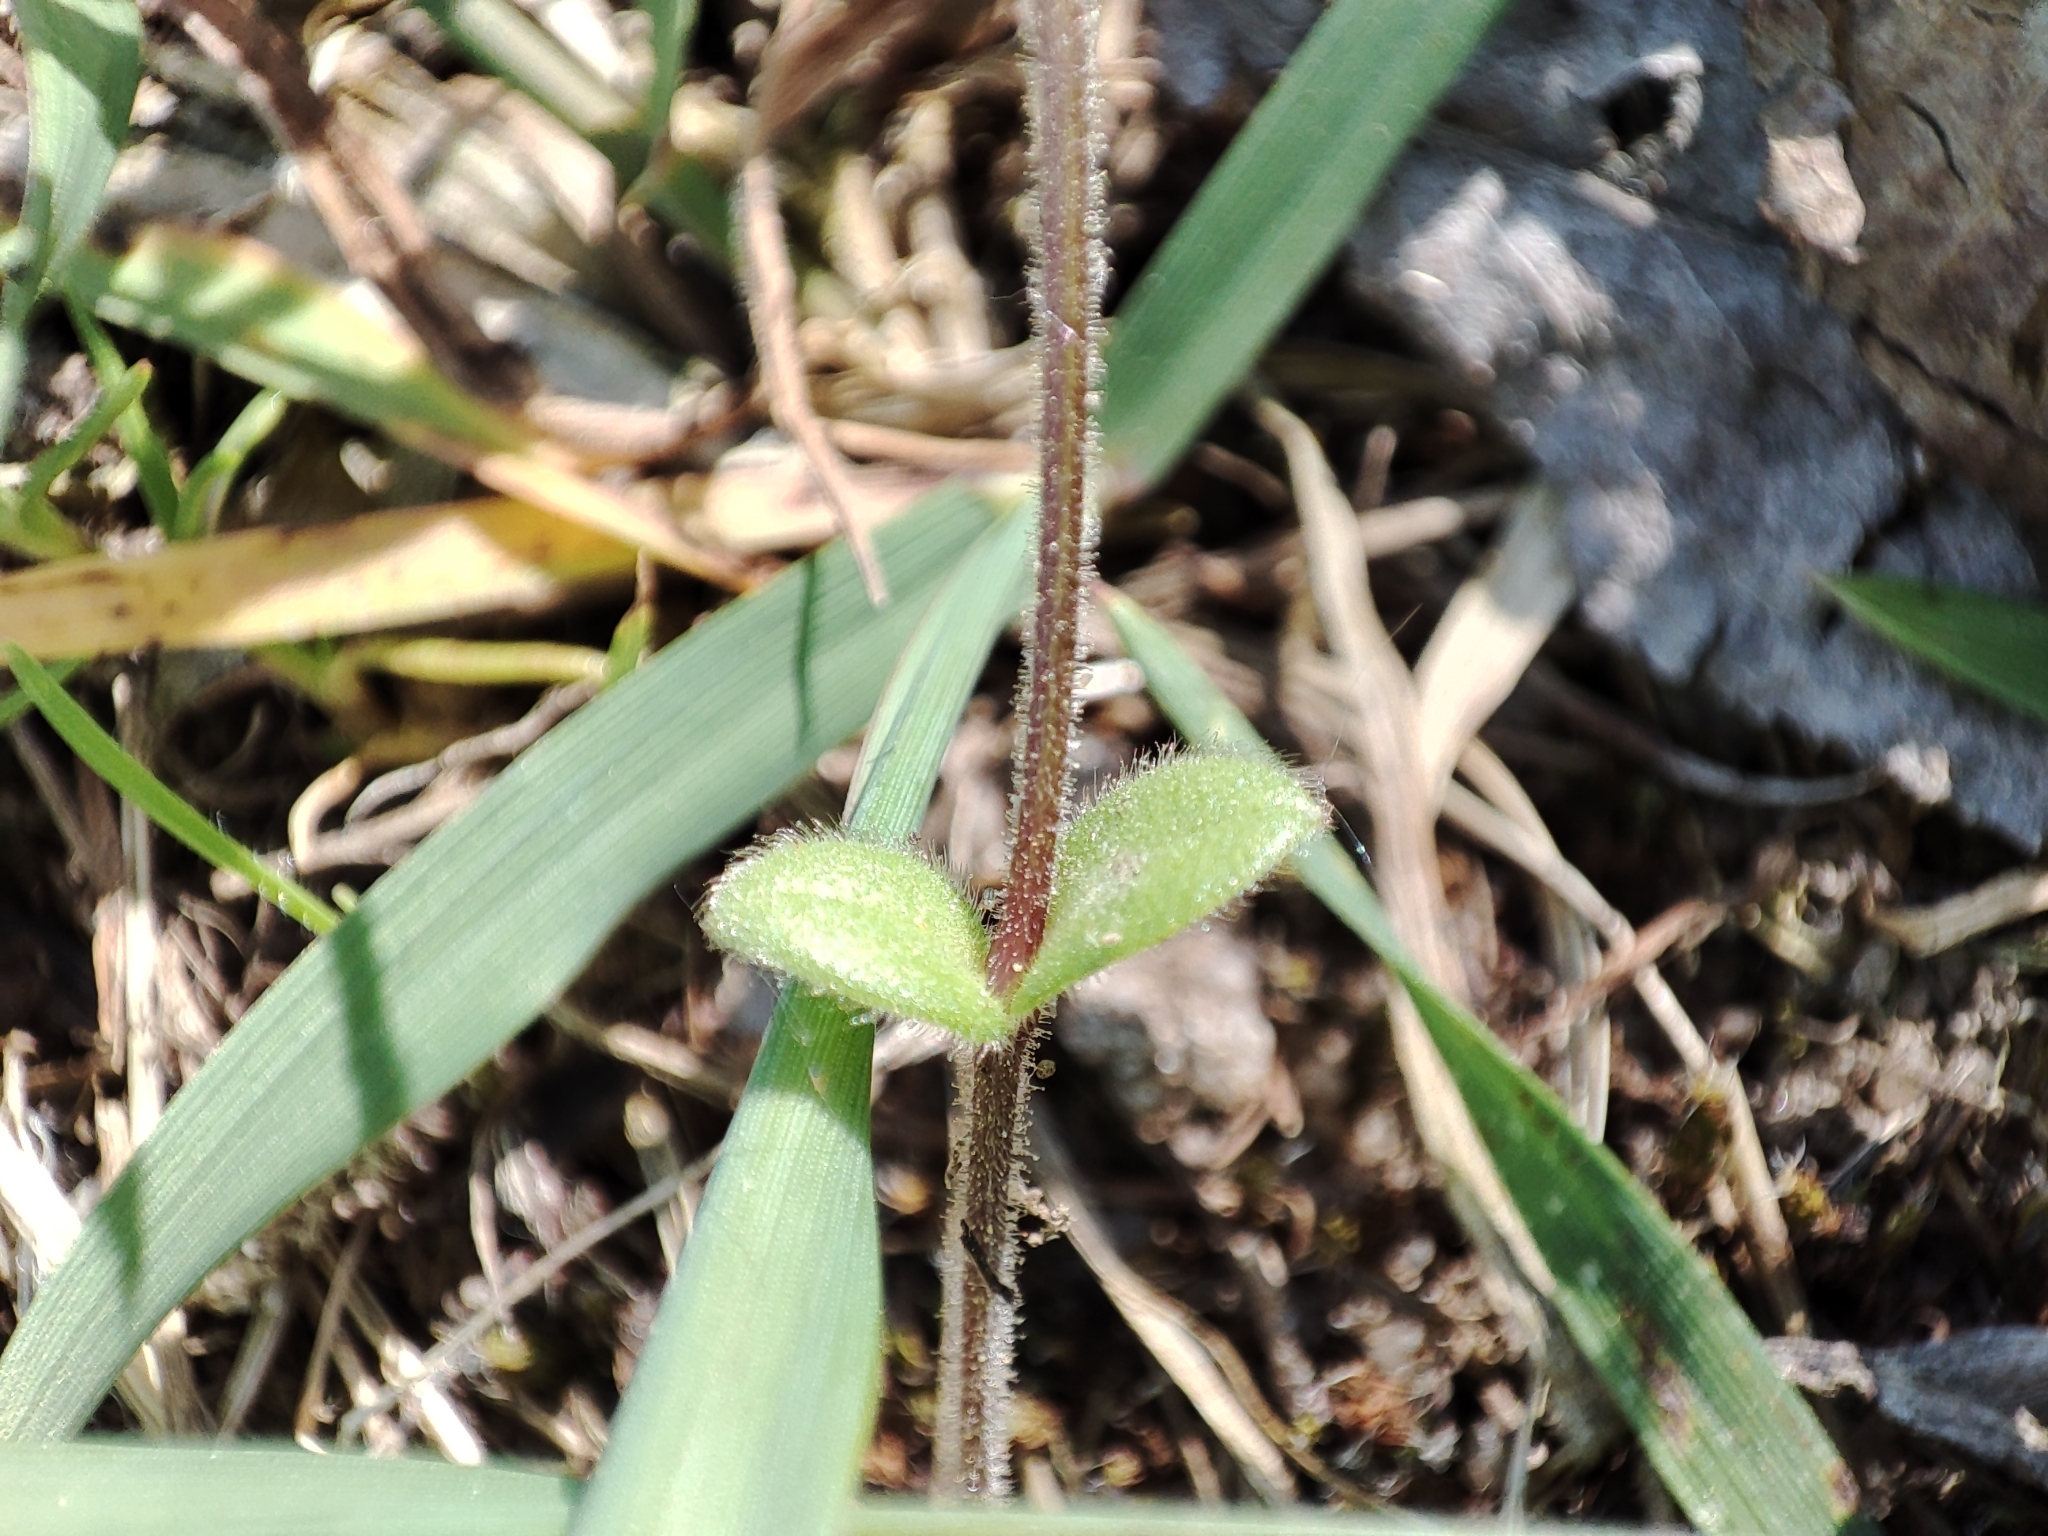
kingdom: Plantae
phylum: Tracheophyta
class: Magnoliopsida
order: Caryophyllales
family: Caryophyllaceae
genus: Cerastium
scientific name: Cerastium semidecandrum
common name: Little mouse-ear
